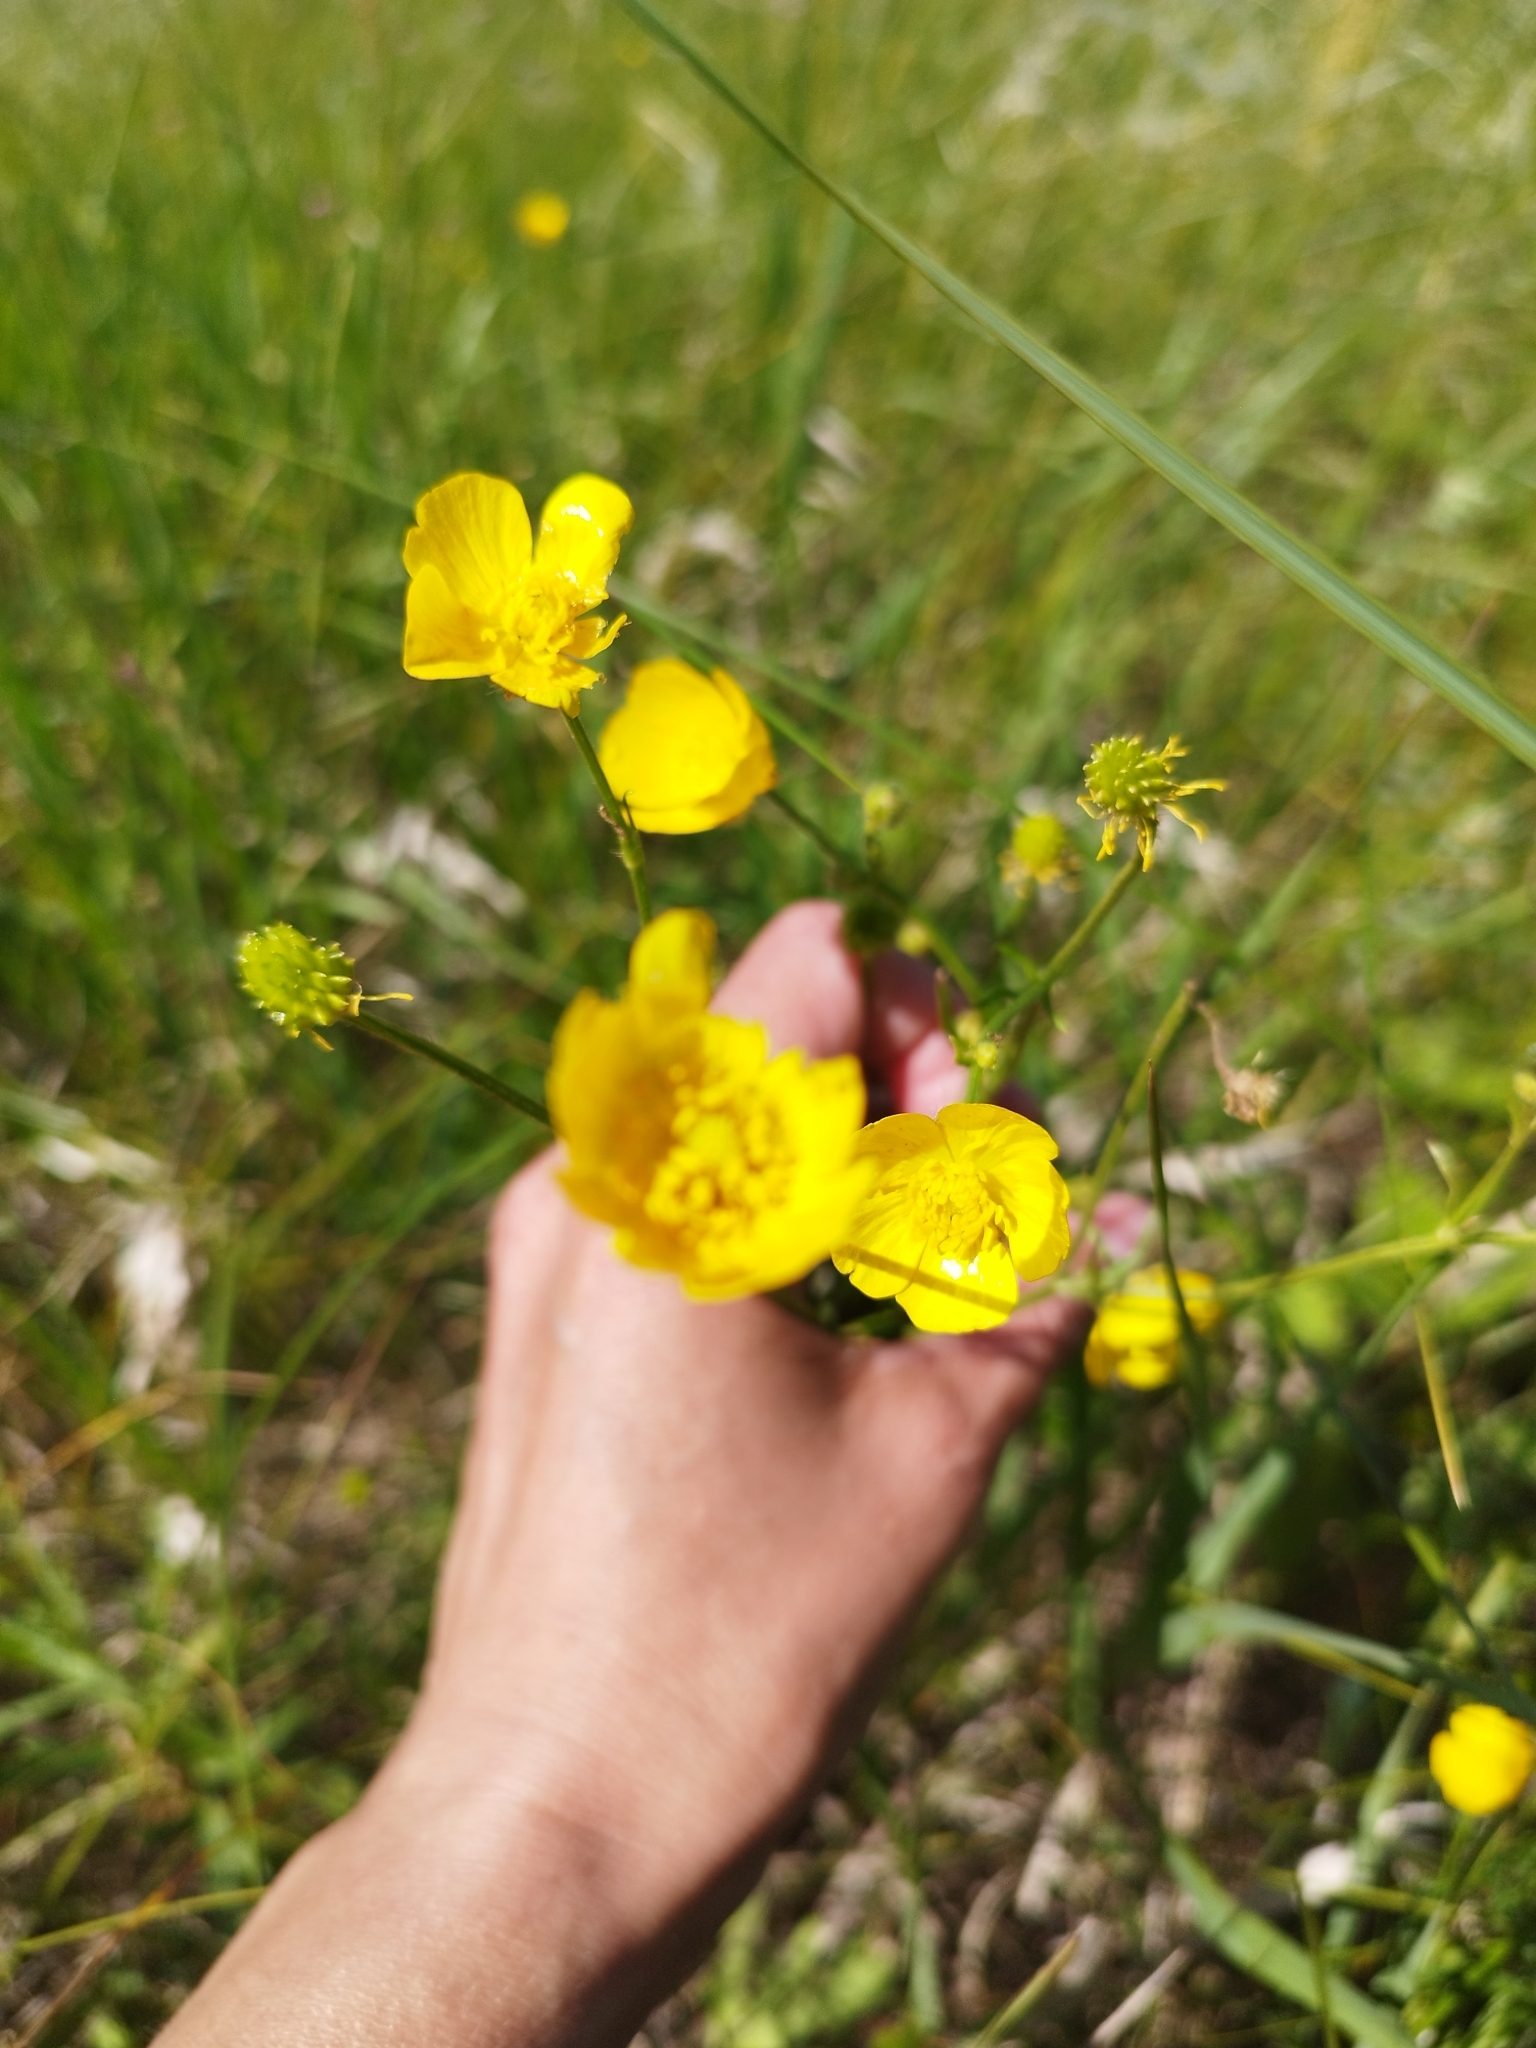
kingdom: Plantae
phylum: Tracheophyta
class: Magnoliopsida
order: Ranunculales
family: Ranunculaceae
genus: Ranunculus
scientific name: Ranunculus polyanthemos
